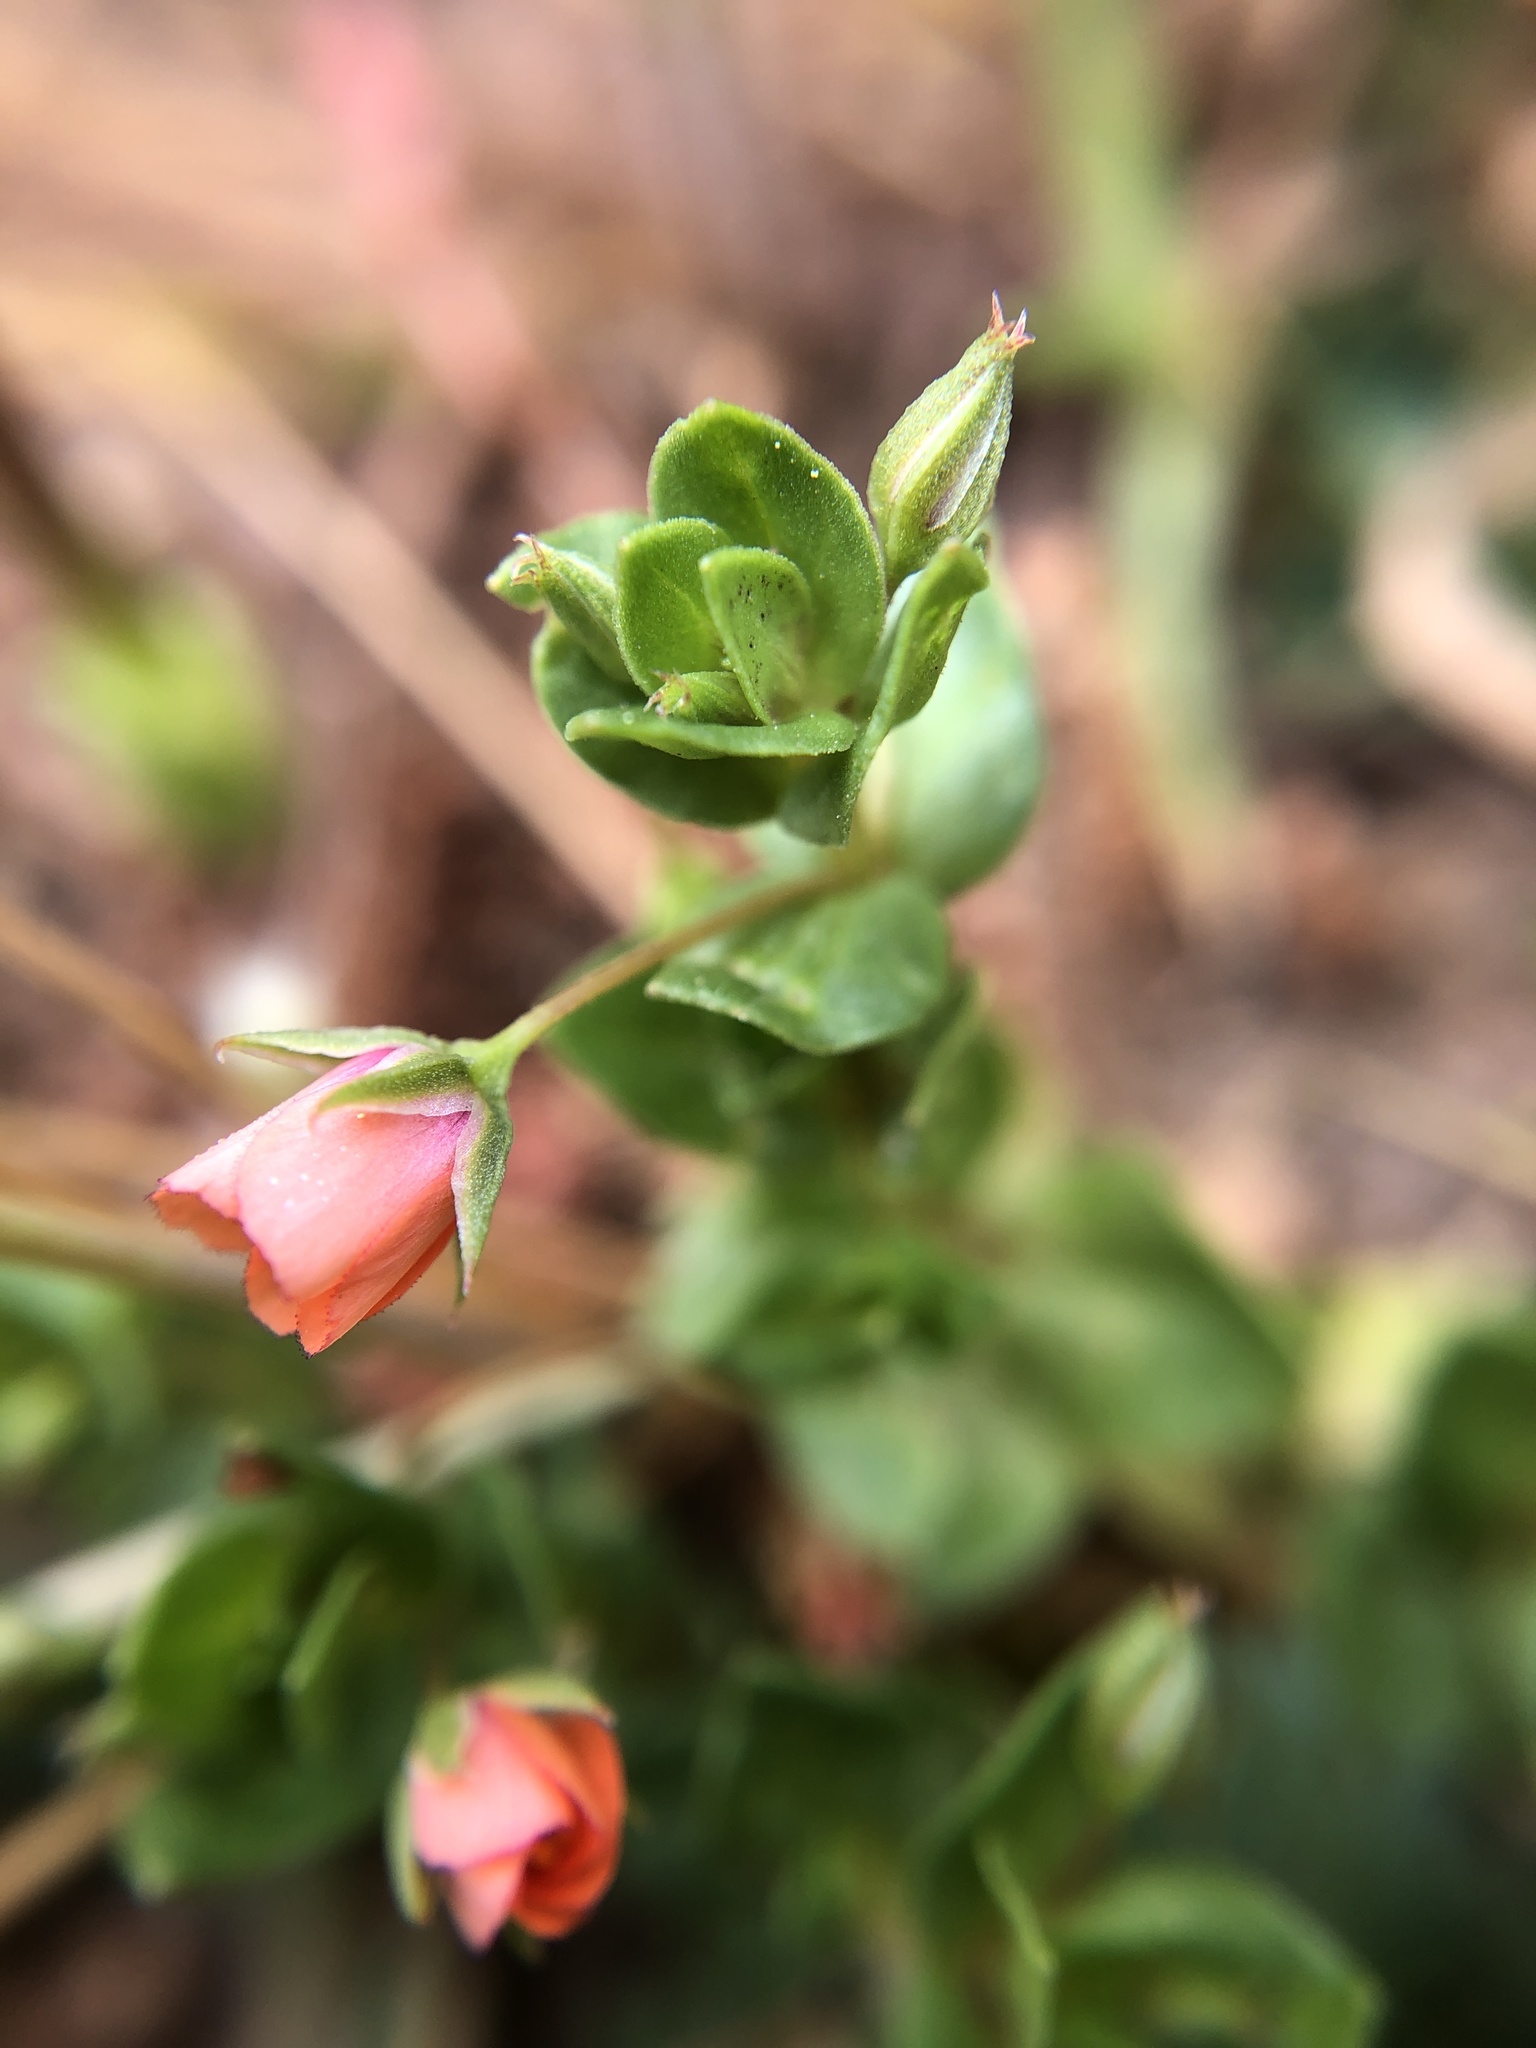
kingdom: Plantae
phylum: Tracheophyta
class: Magnoliopsida
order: Ericales
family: Primulaceae
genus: Lysimachia
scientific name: Lysimachia arvensis
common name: Scarlet pimpernel
